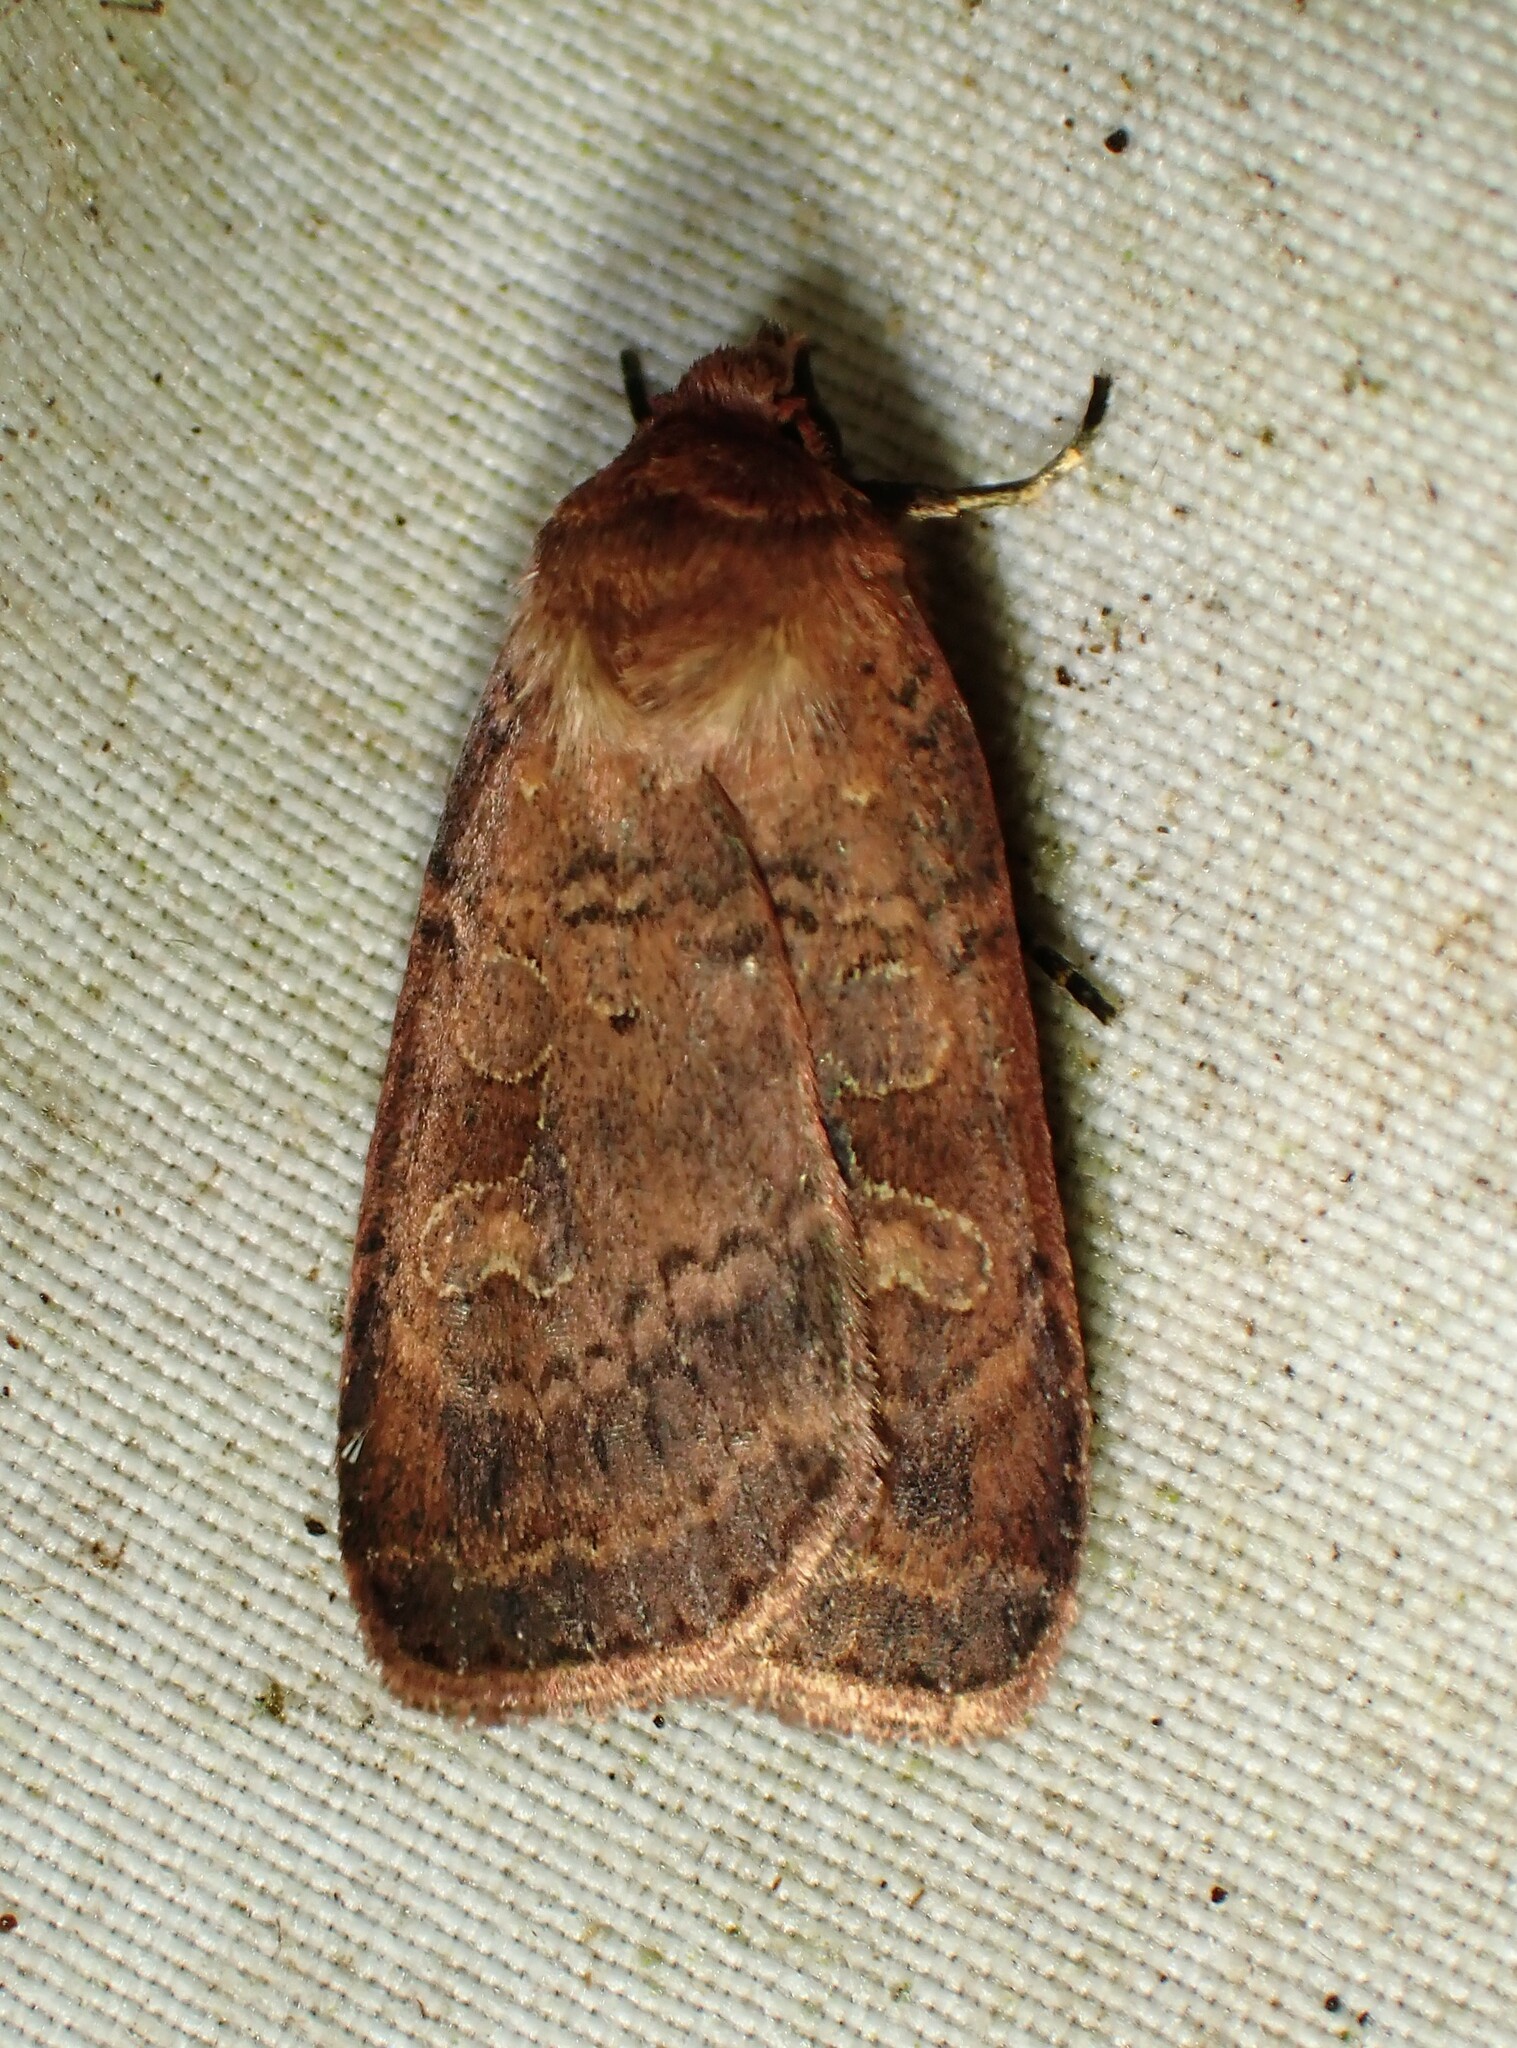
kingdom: Animalia
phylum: Arthropoda
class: Insecta
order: Lepidoptera
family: Noctuidae
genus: Lycophotia
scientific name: Lycophotia phyllophora
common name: Lycophotia moth
